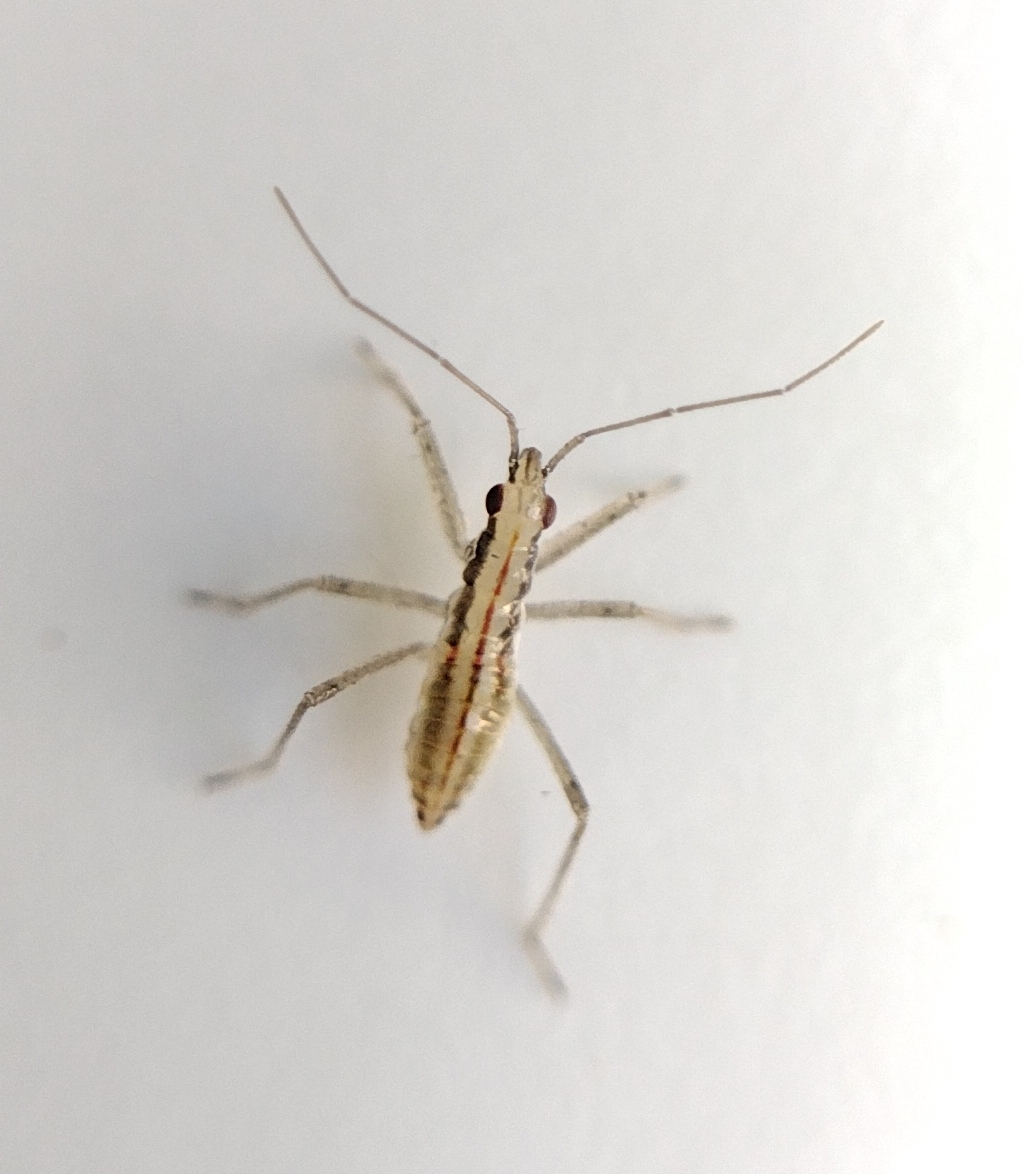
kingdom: Animalia
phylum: Arthropoda
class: Insecta
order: Hemiptera
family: Nabidae
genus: Nabis
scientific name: Nabis limbatus
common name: Marsh damselbug
